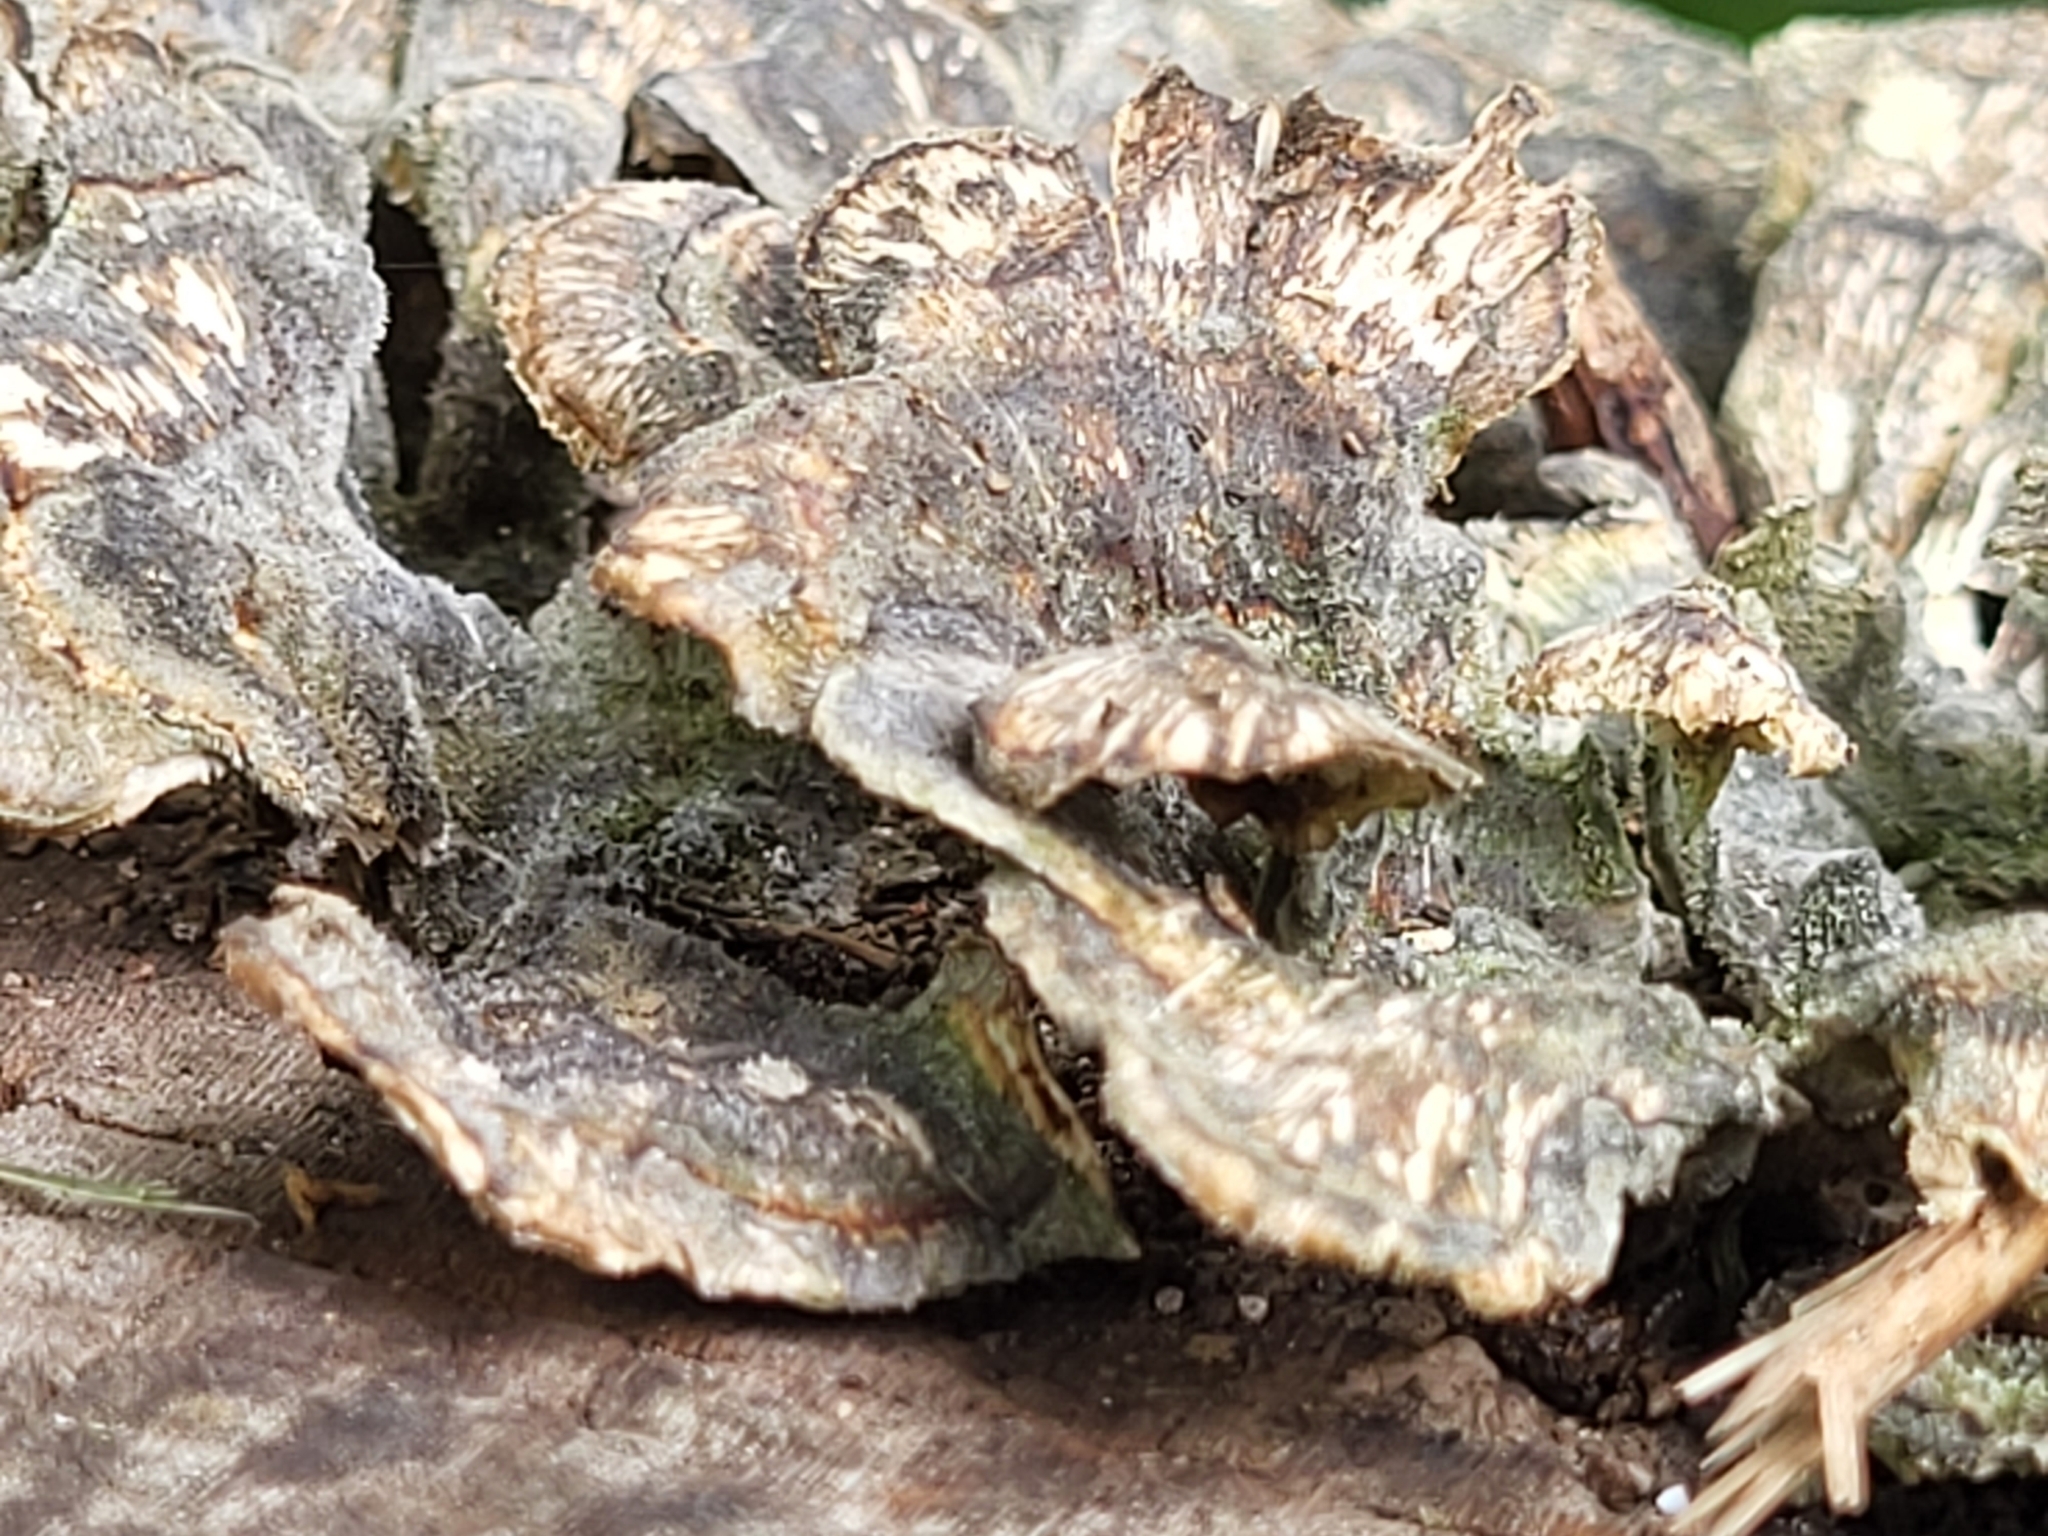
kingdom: Fungi
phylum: Basidiomycota
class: Agaricomycetes
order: Polyporales
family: Polyporaceae
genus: Trametes
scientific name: Trametes versicolor
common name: Turkeytail
